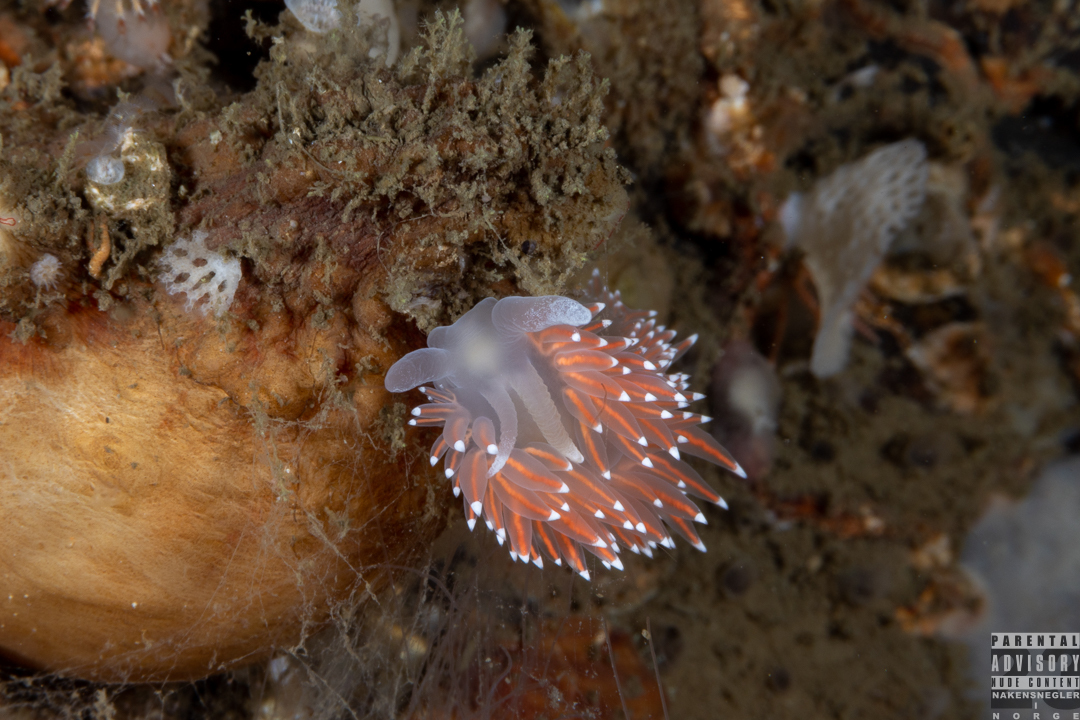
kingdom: Animalia
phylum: Mollusca
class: Gastropoda
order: Nudibranchia
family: Coryphellidae
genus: Coryphella
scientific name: Coryphella nobilis
